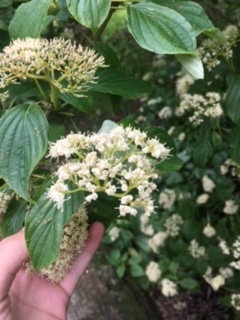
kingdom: Plantae
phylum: Tracheophyta
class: Magnoliopsida
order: Cornales
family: Cornaceae
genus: Cornus
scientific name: Cornus alternifolia
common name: Pagoda dogwood
